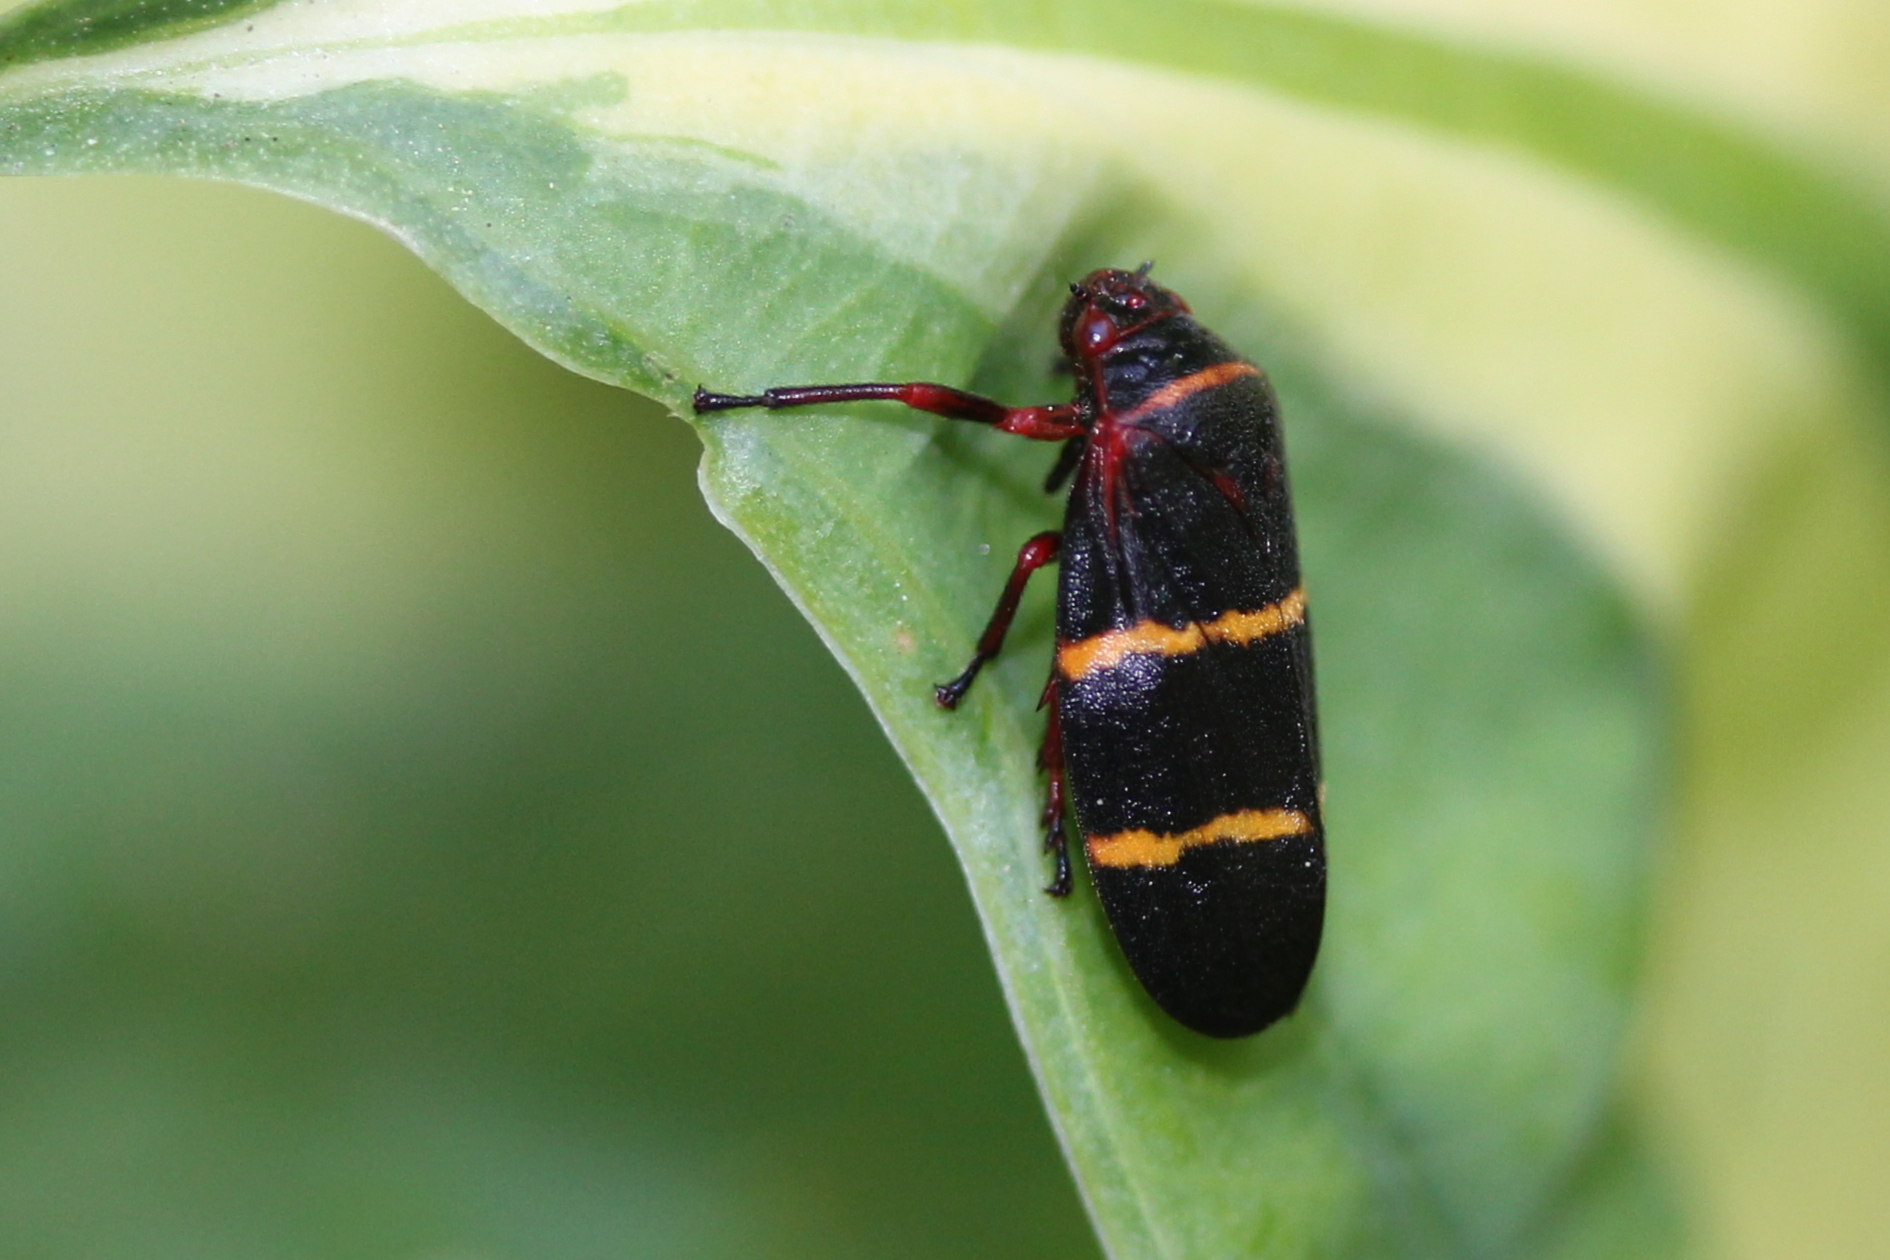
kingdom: Animalia
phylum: Arthropoda
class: Insecta
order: Hemiptera
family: Cercopidae
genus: Prosapia
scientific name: Prosapia bicincta
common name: Twolined spittlebug
